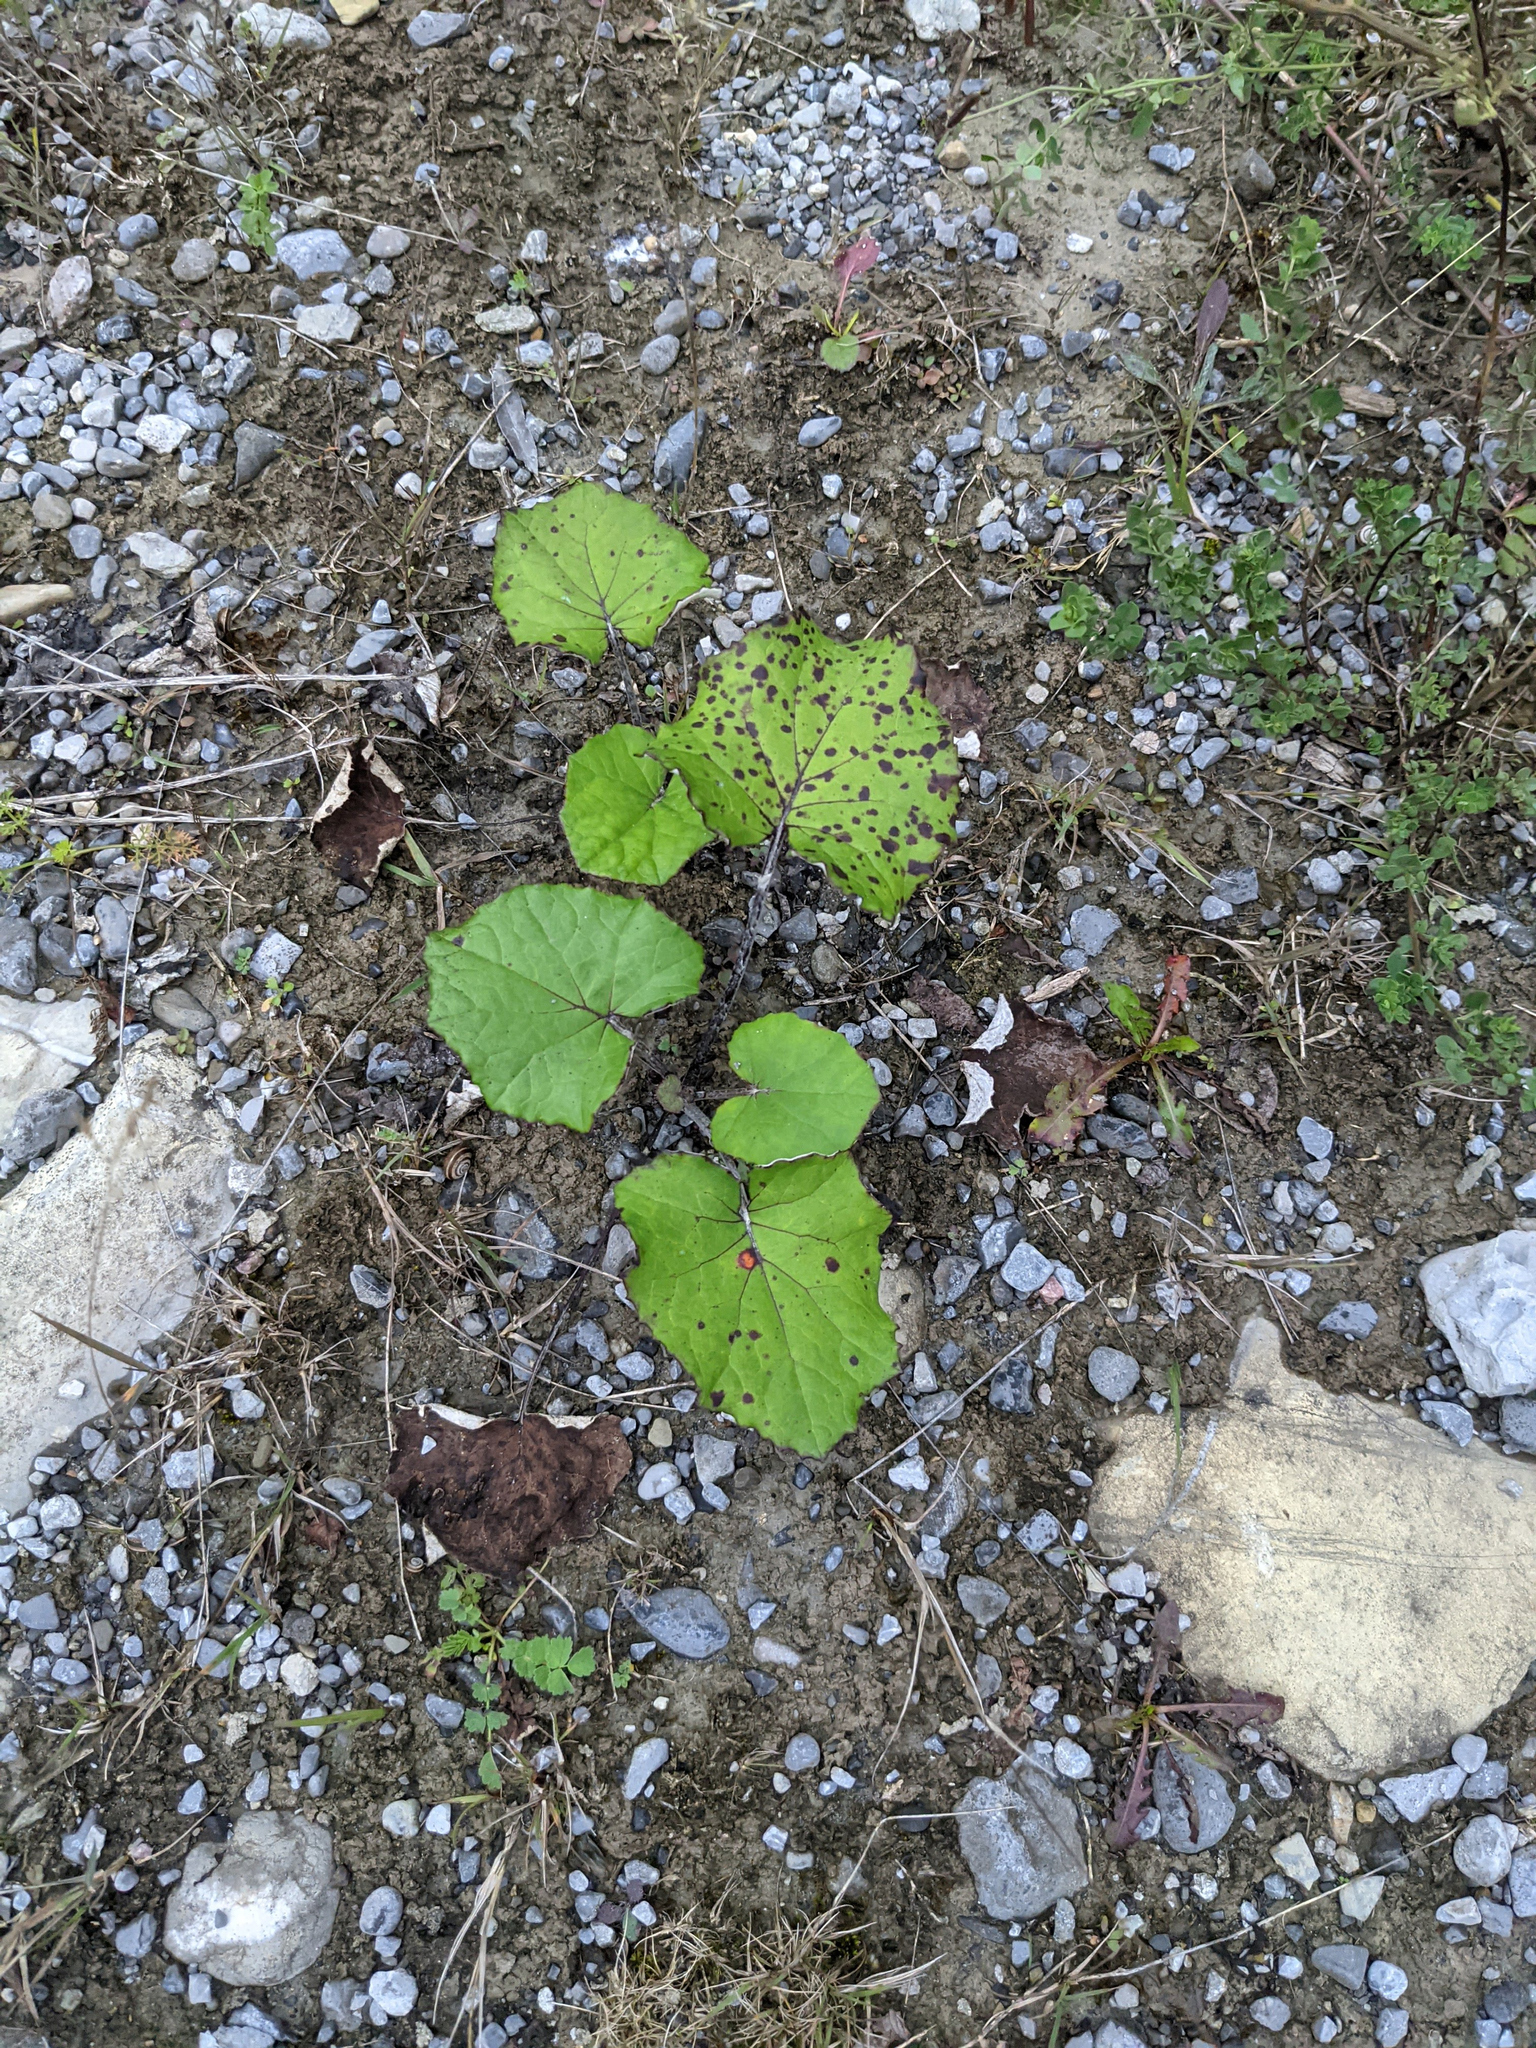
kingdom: Plantae
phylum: Tracheophyta
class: Magnoliopsida
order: Asterales
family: Asteraceae
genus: Tussilago
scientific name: Tussilago farfara
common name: Coltsfoot
